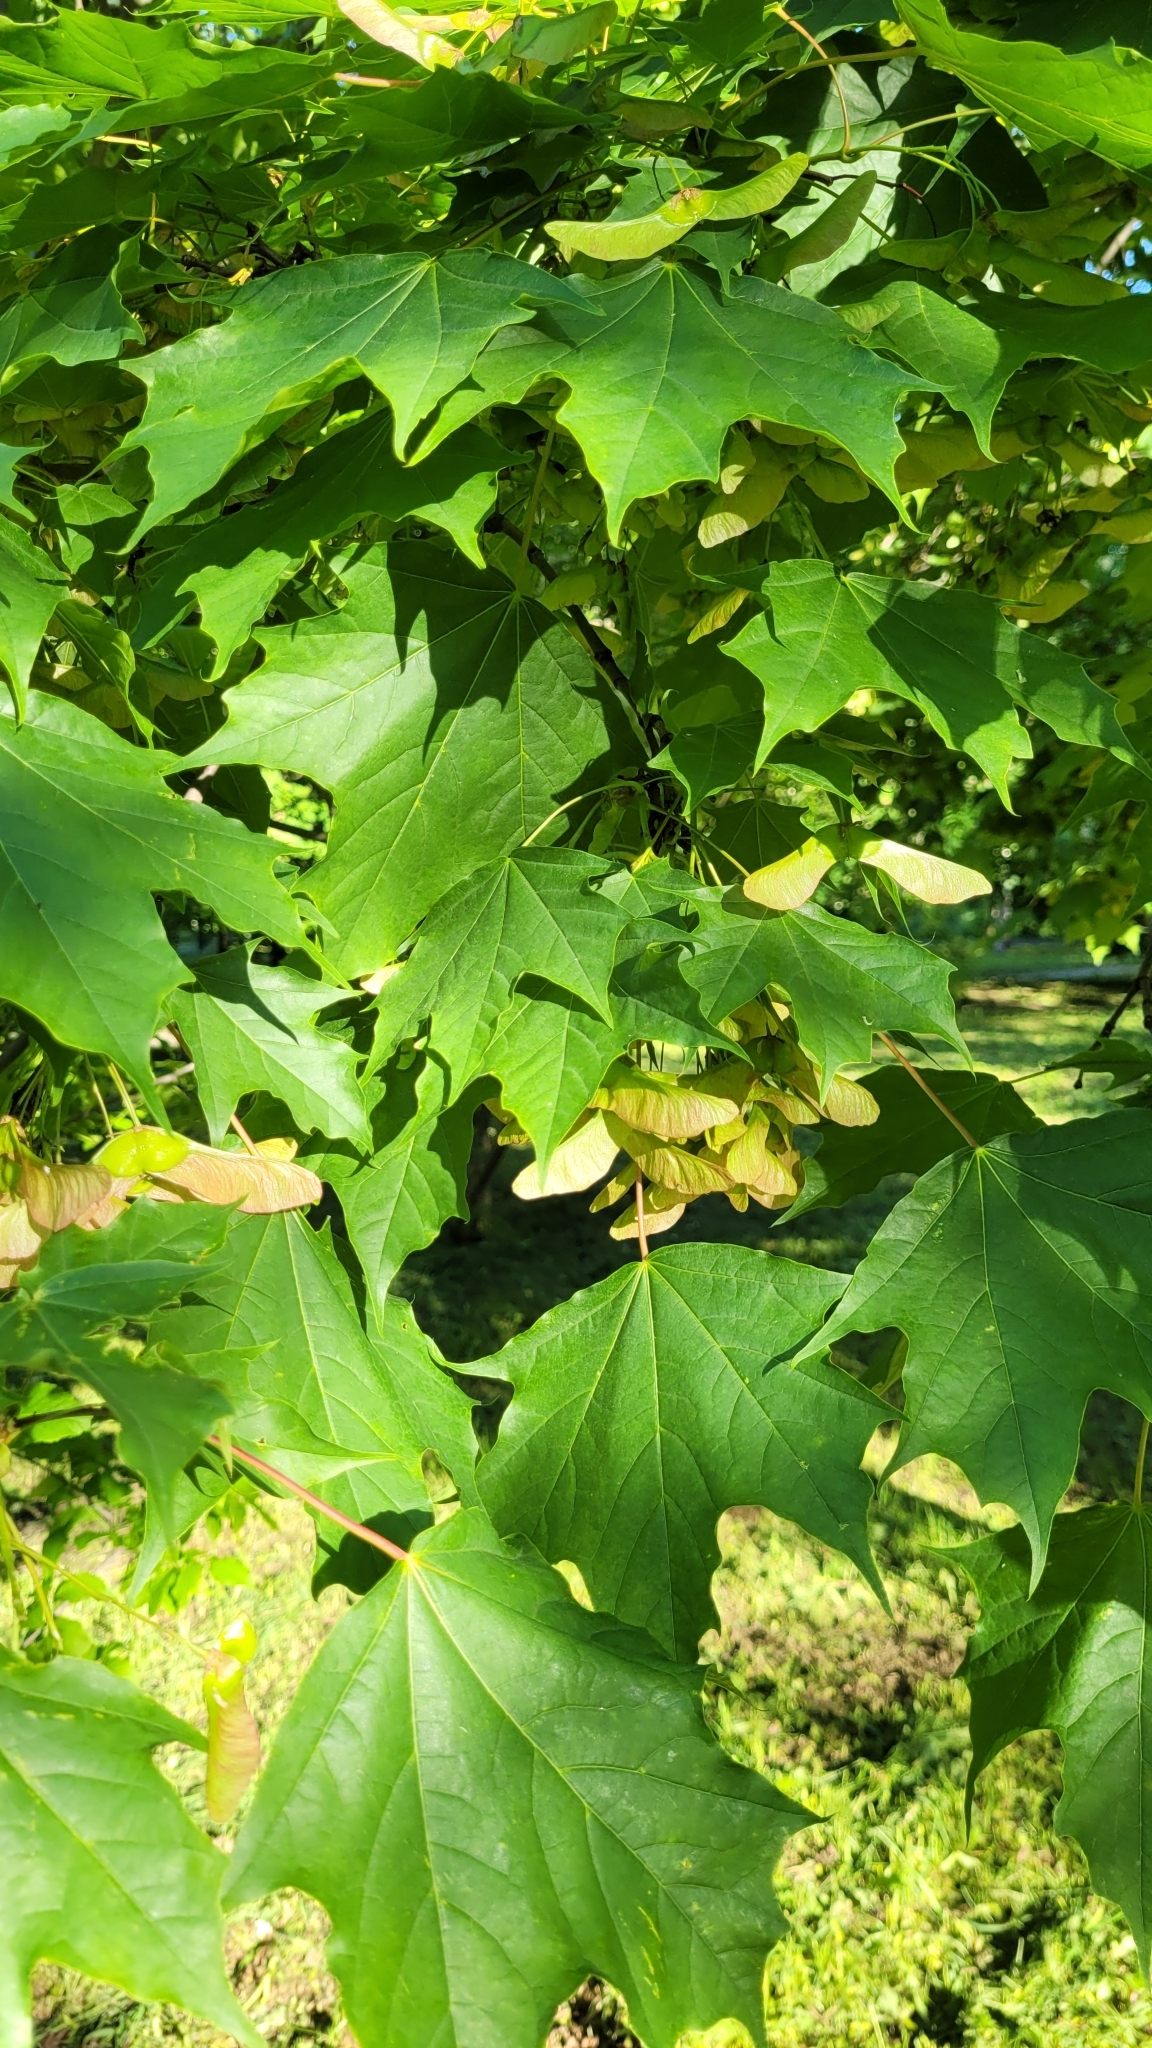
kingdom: Plantae
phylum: Tracheophyta
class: Magnoliopsida
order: Sapindales
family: Sapindaceae
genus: Acer
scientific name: Acer platanoides
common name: Norway maple
